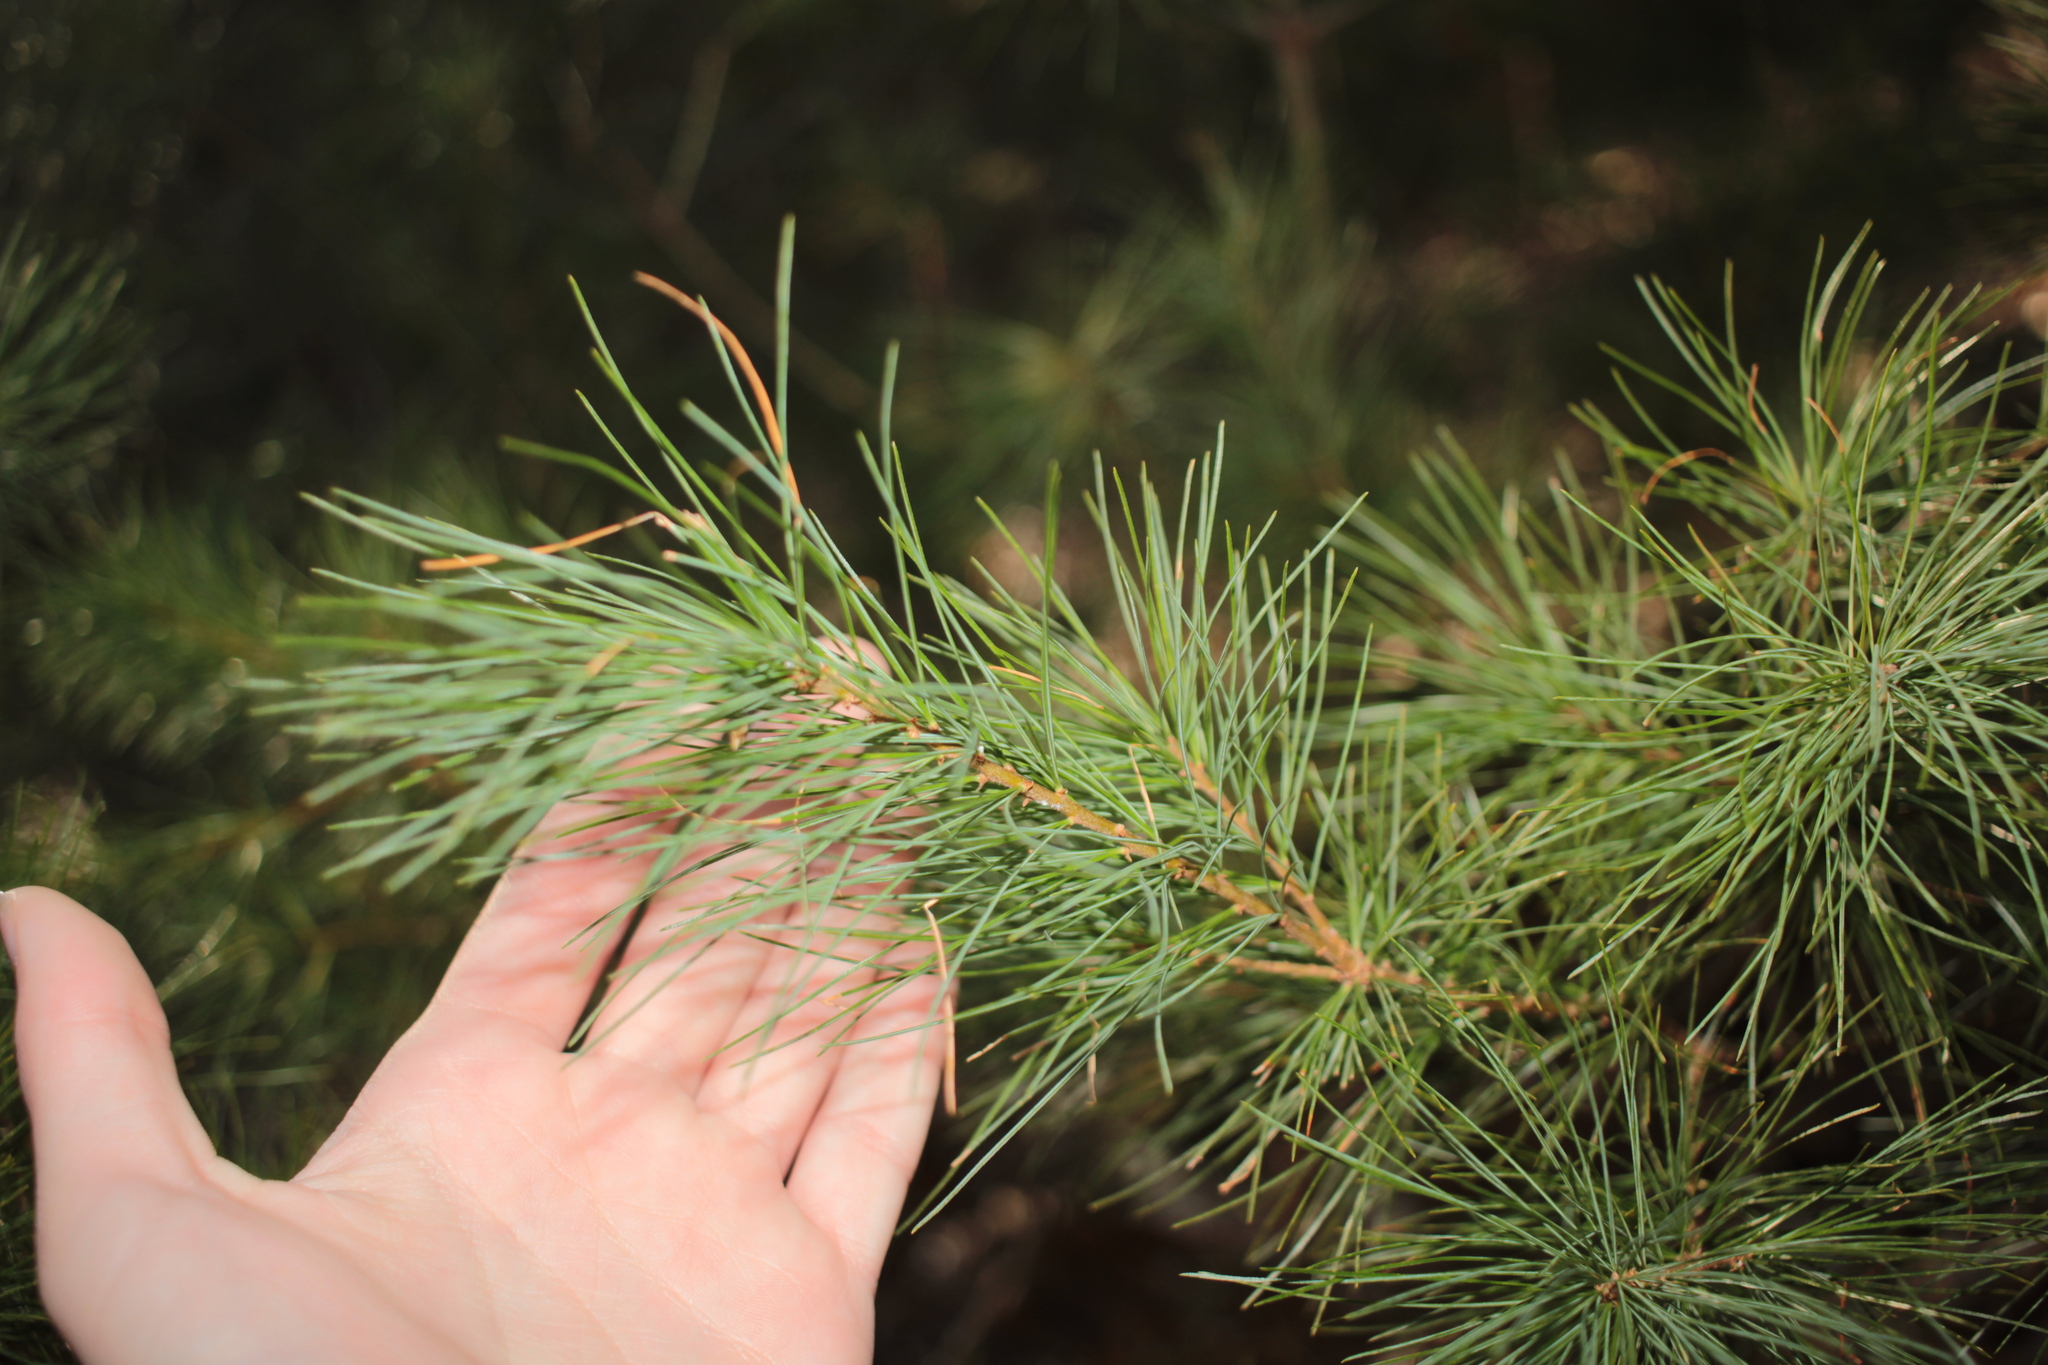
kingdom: Plantae
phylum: Tracheophyta
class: Pinopsida
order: Pinales
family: Pinaceae
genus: Pinus
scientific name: Pinus strobus
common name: Weymouth pine
